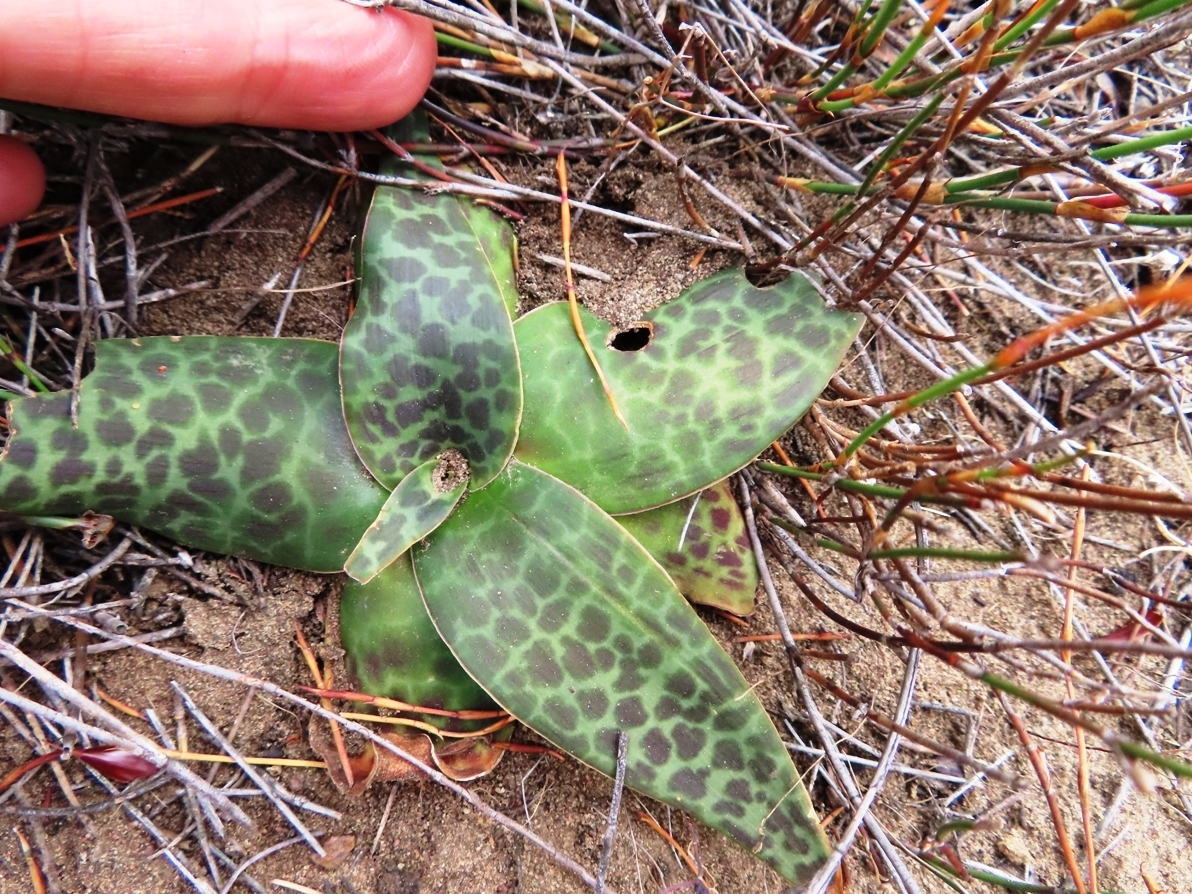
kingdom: Plantae
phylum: Tracheophyta
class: Liliopsida
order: Asparagales
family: Asparagaceae
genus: Ledebouria
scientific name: Ledebouria revoluta
